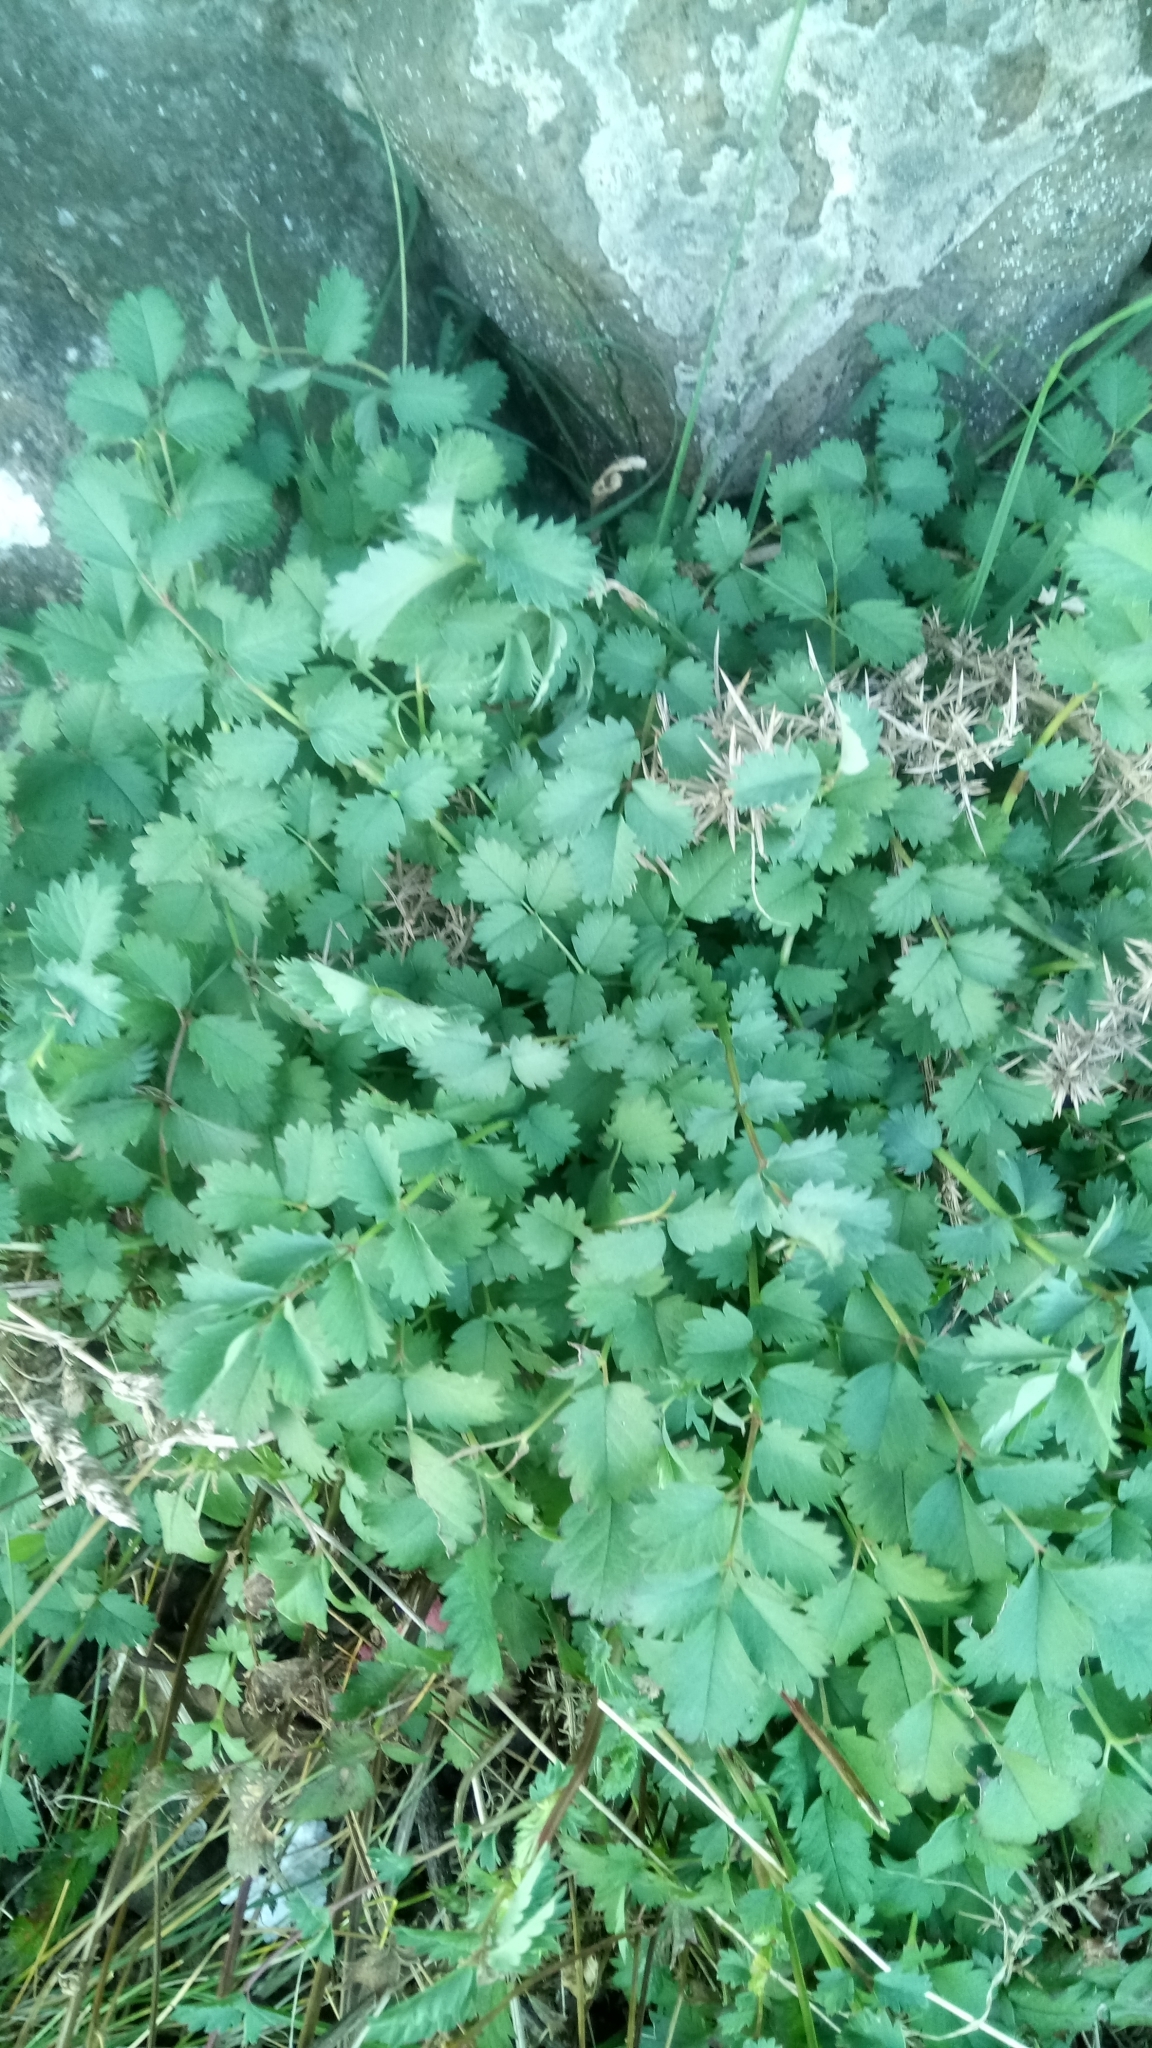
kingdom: Plantae
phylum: Tracheophyta
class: Magnoliopsida
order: Rosales
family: Rosaceae
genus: Poterium
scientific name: Poterium sanguisorba
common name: Salad burnet
